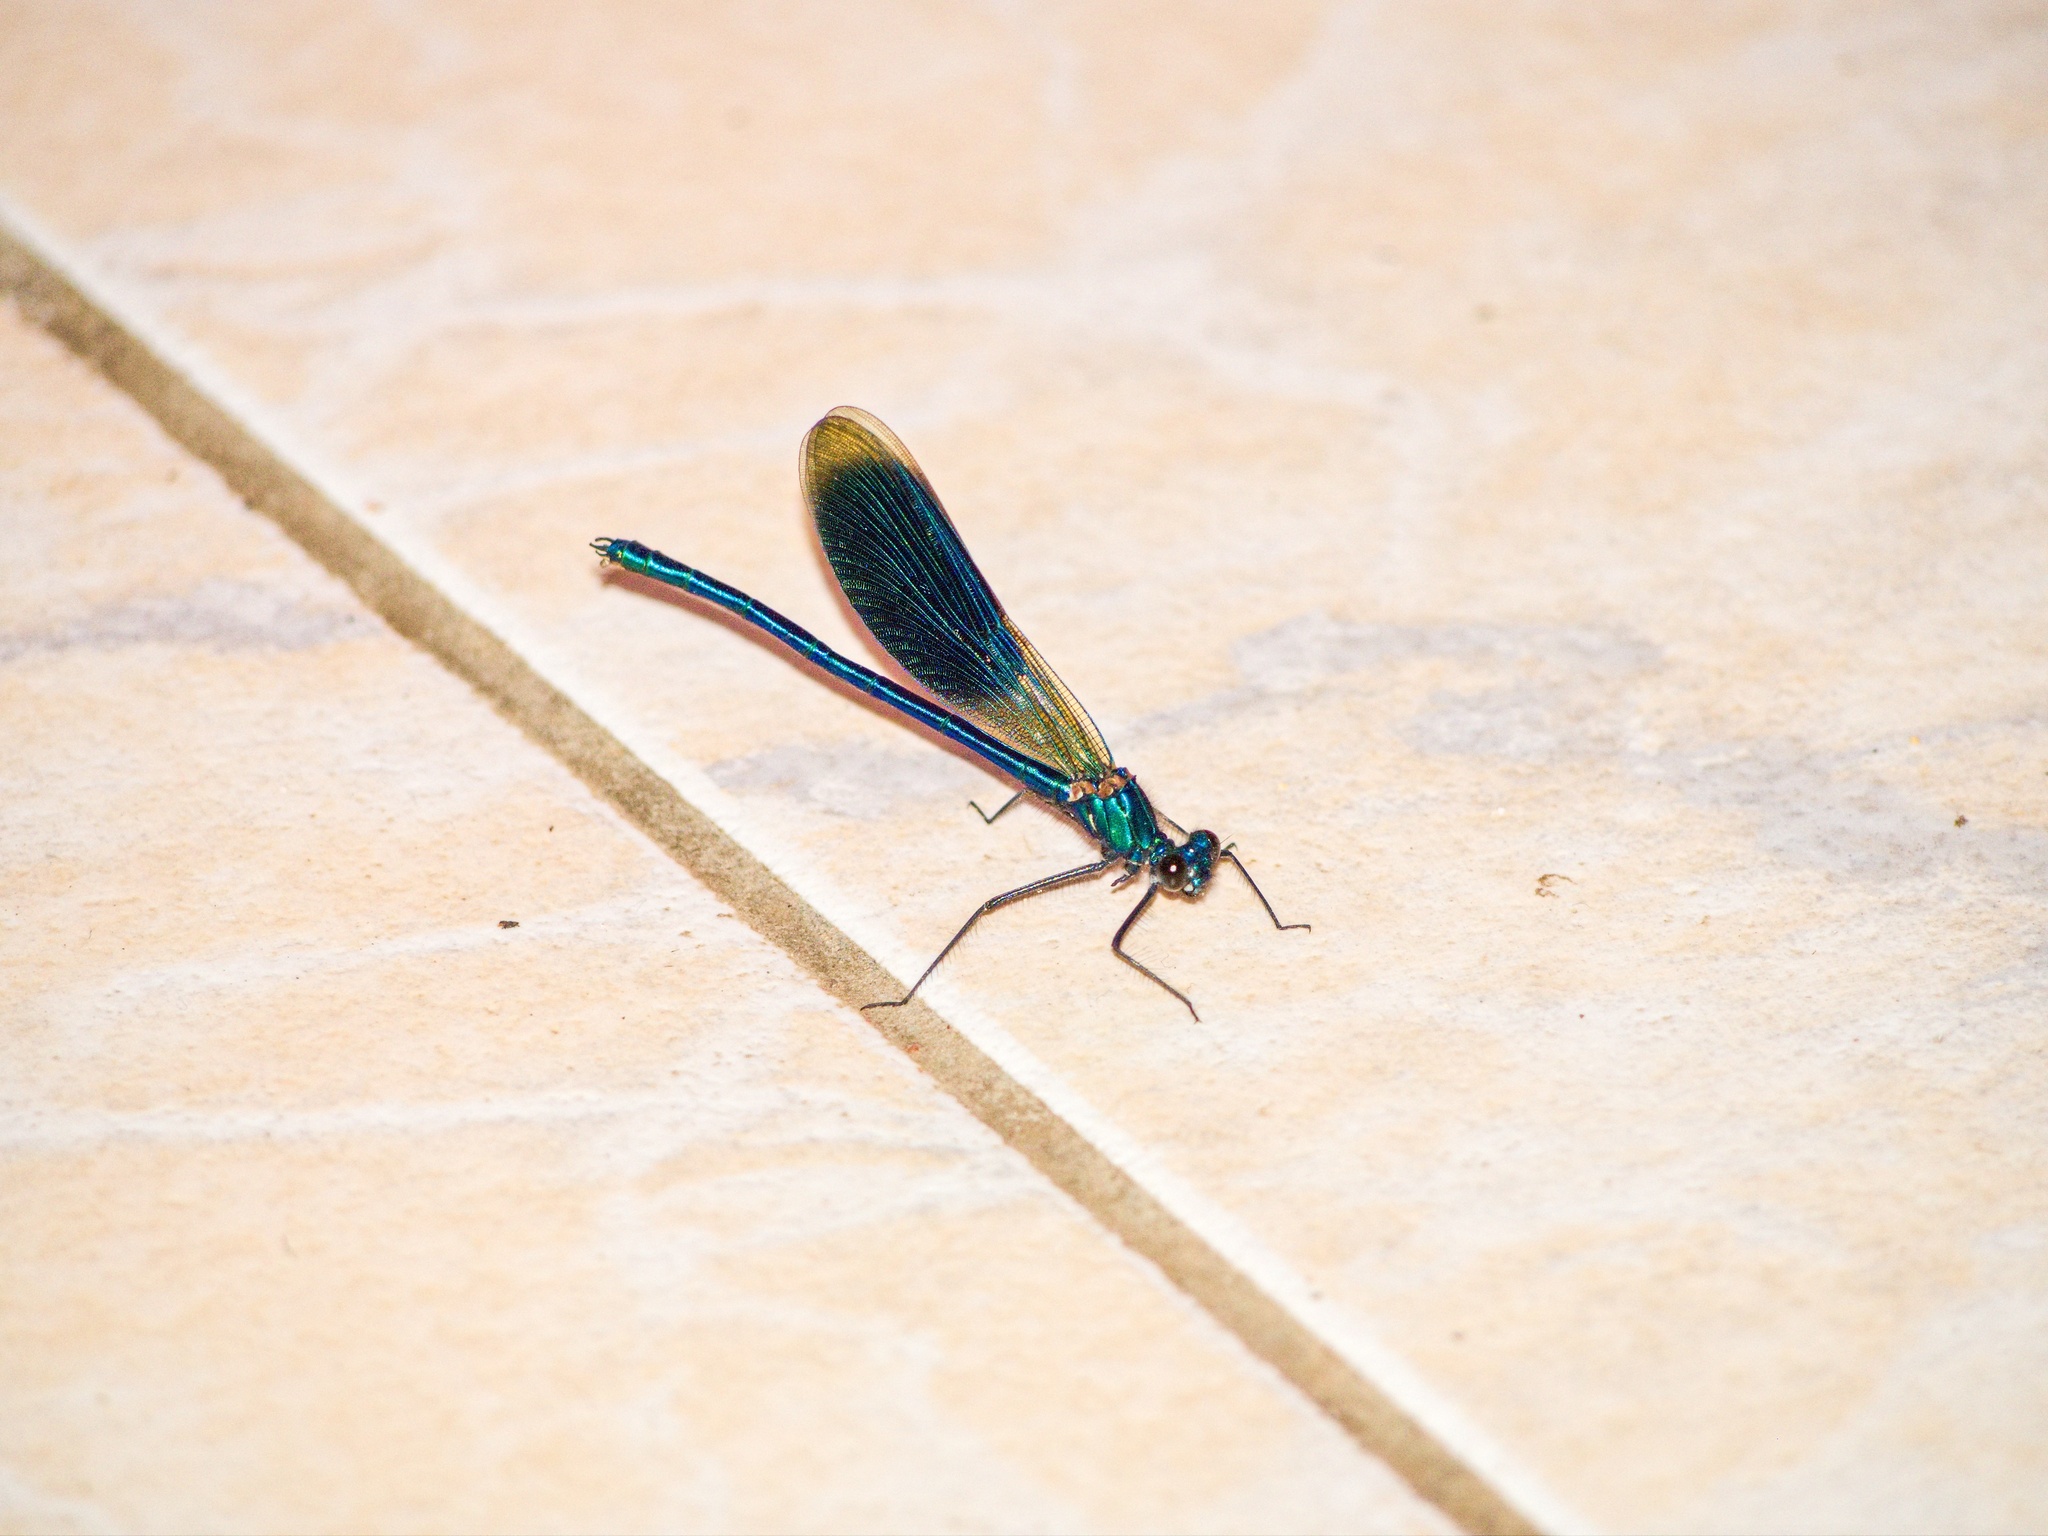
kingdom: Animalia
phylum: Arthropoda
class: Insecta
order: Odonata
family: Calopterygidae
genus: Calopteryx
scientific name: Calopteryx splendens
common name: Banded demoiselle
